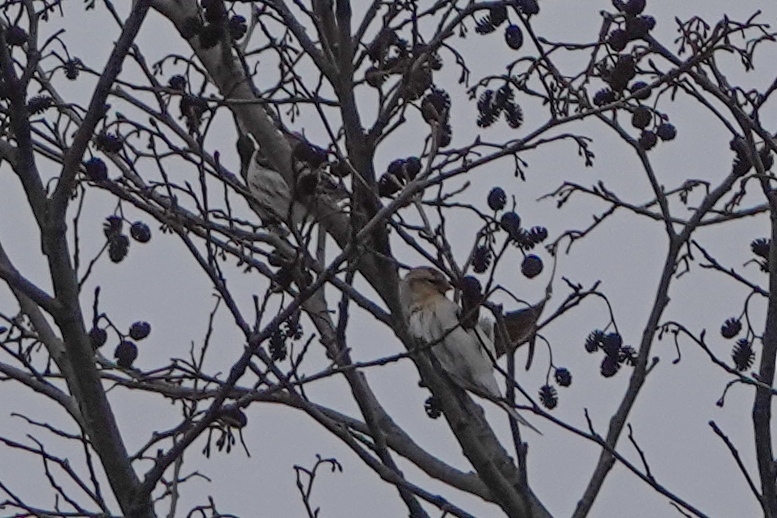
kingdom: Animalia
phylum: Chordata
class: Aves
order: Passeriformes
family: Fringillidae
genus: Acanthis
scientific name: Acanthis flammea
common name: Common redpoll
